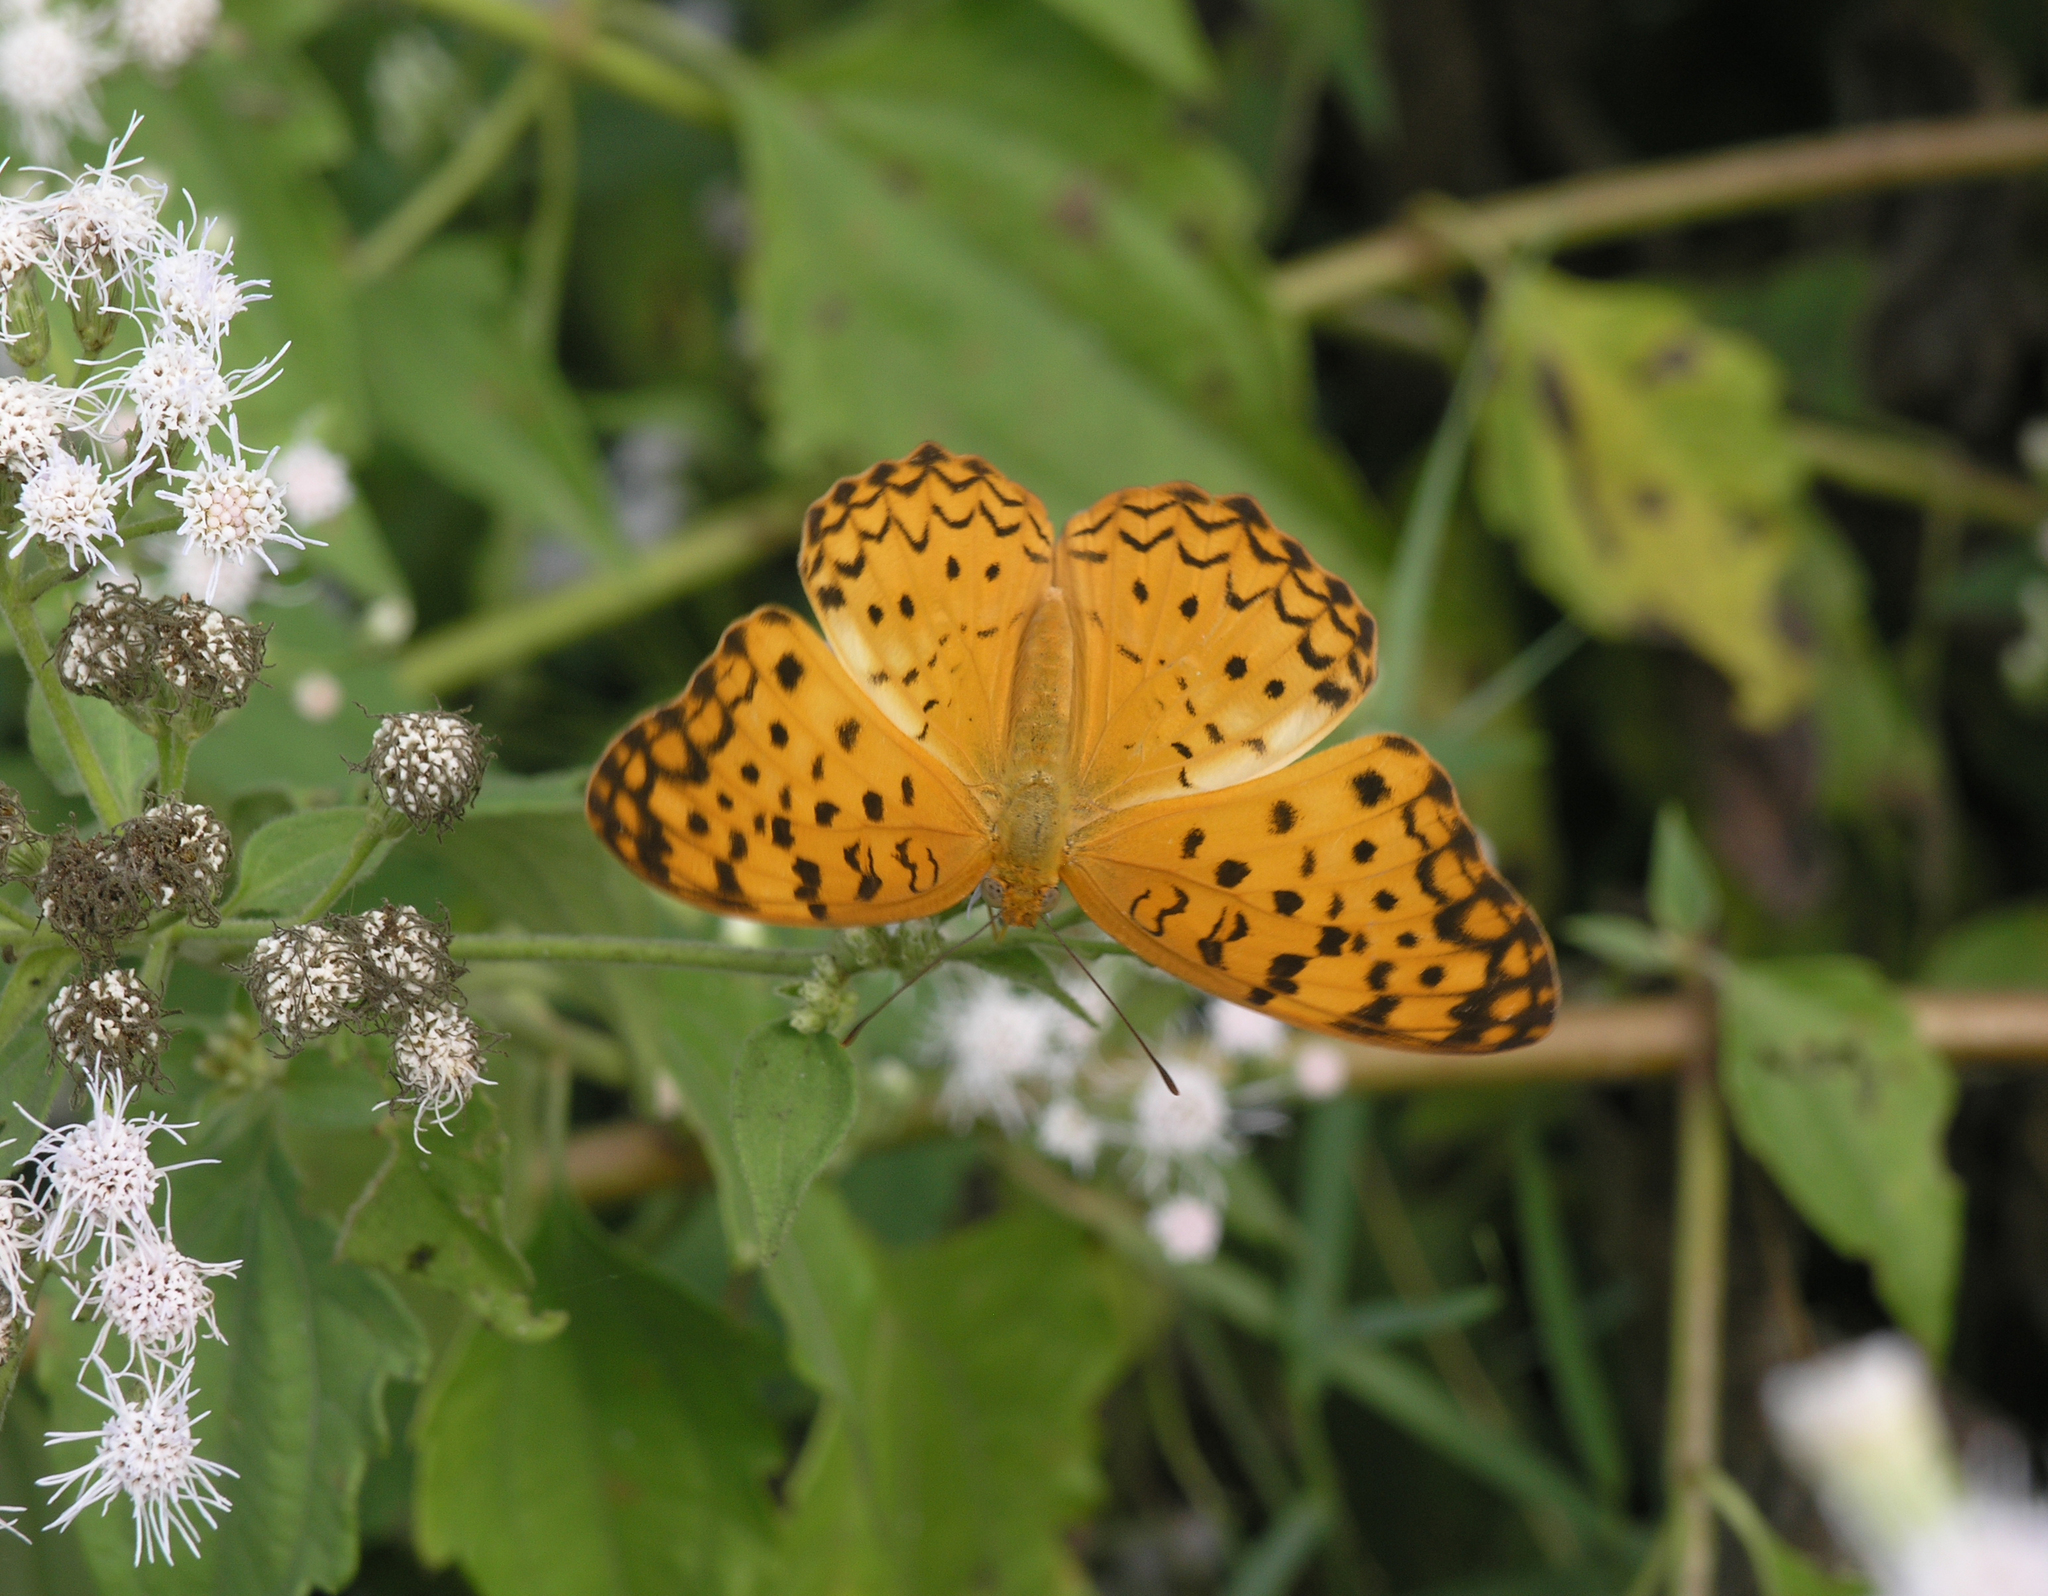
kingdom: Animalia
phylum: Arthropoda
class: Insecta
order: Lepidoptera
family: Nymphalidae
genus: Phalanta
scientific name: Phalanta phalantha
